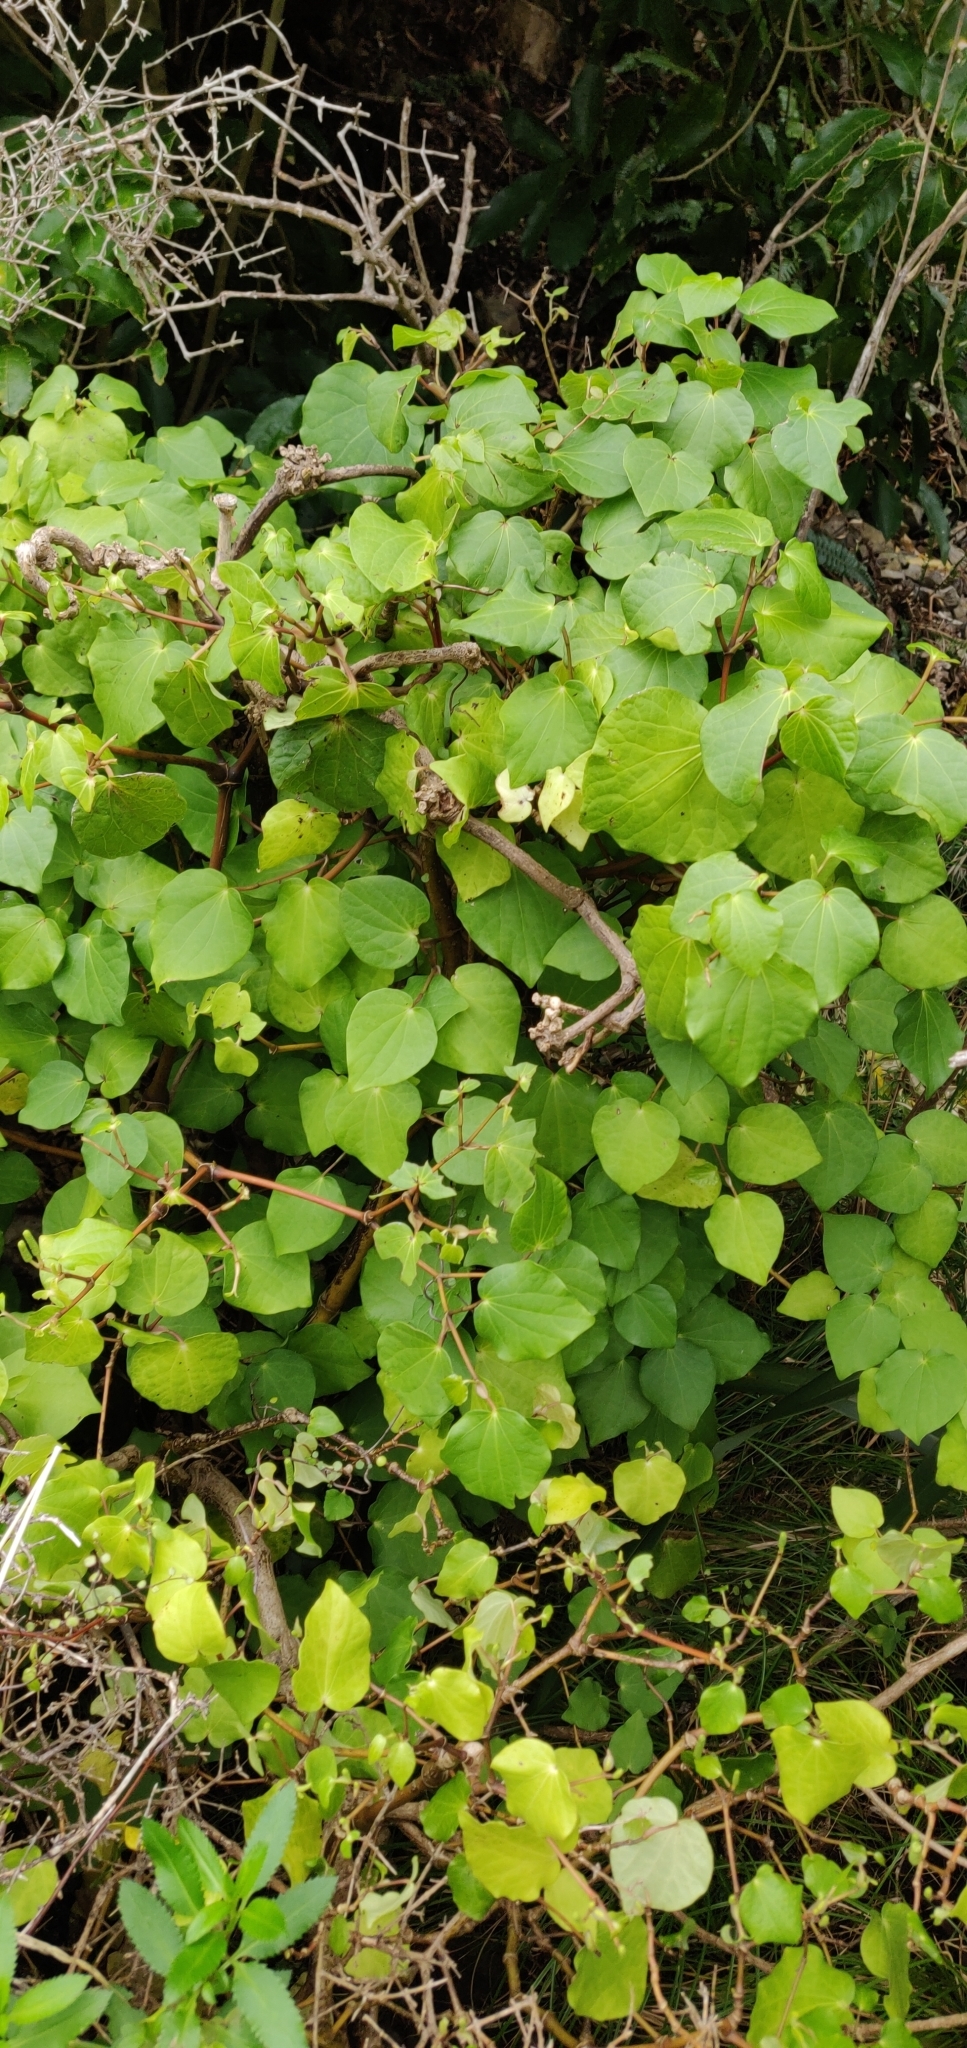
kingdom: Plantae
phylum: Tracheophyta
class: Magnoliopsida
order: Piperales
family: Piperaceae
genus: Macropiper
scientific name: Macropiper excelsum
